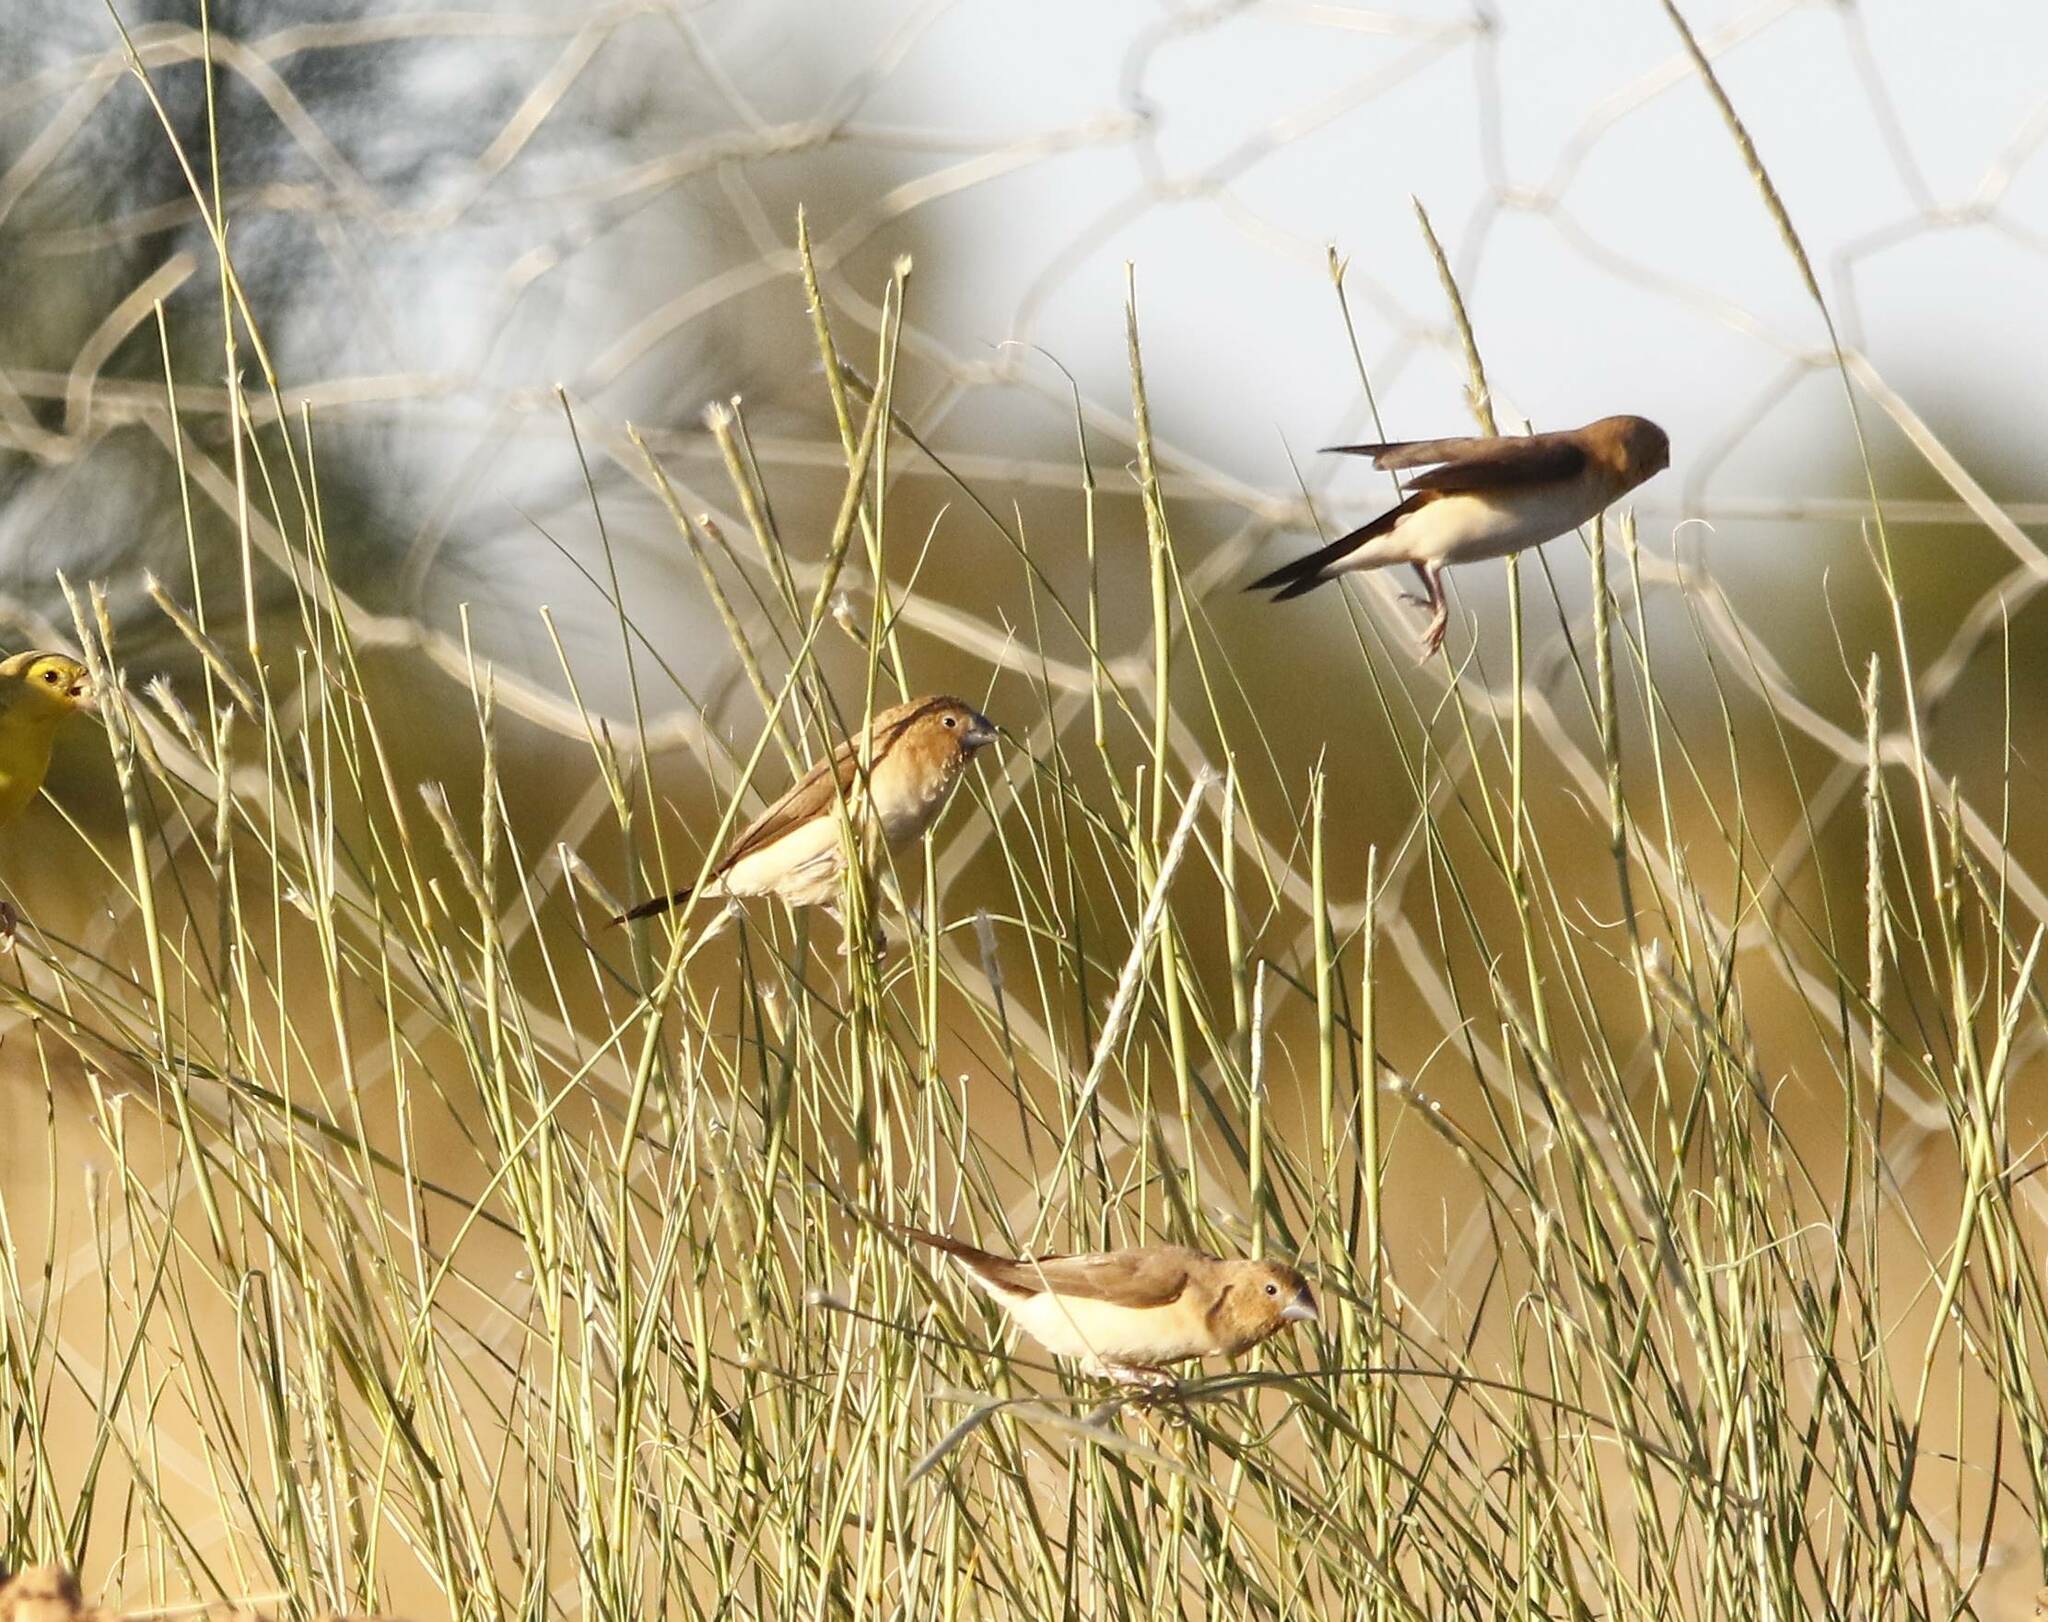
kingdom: Animalia
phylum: Chordata
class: Aves
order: Passeriformes
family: Estrildidae
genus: Euodice
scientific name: Euodice cantans
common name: African silverbill
